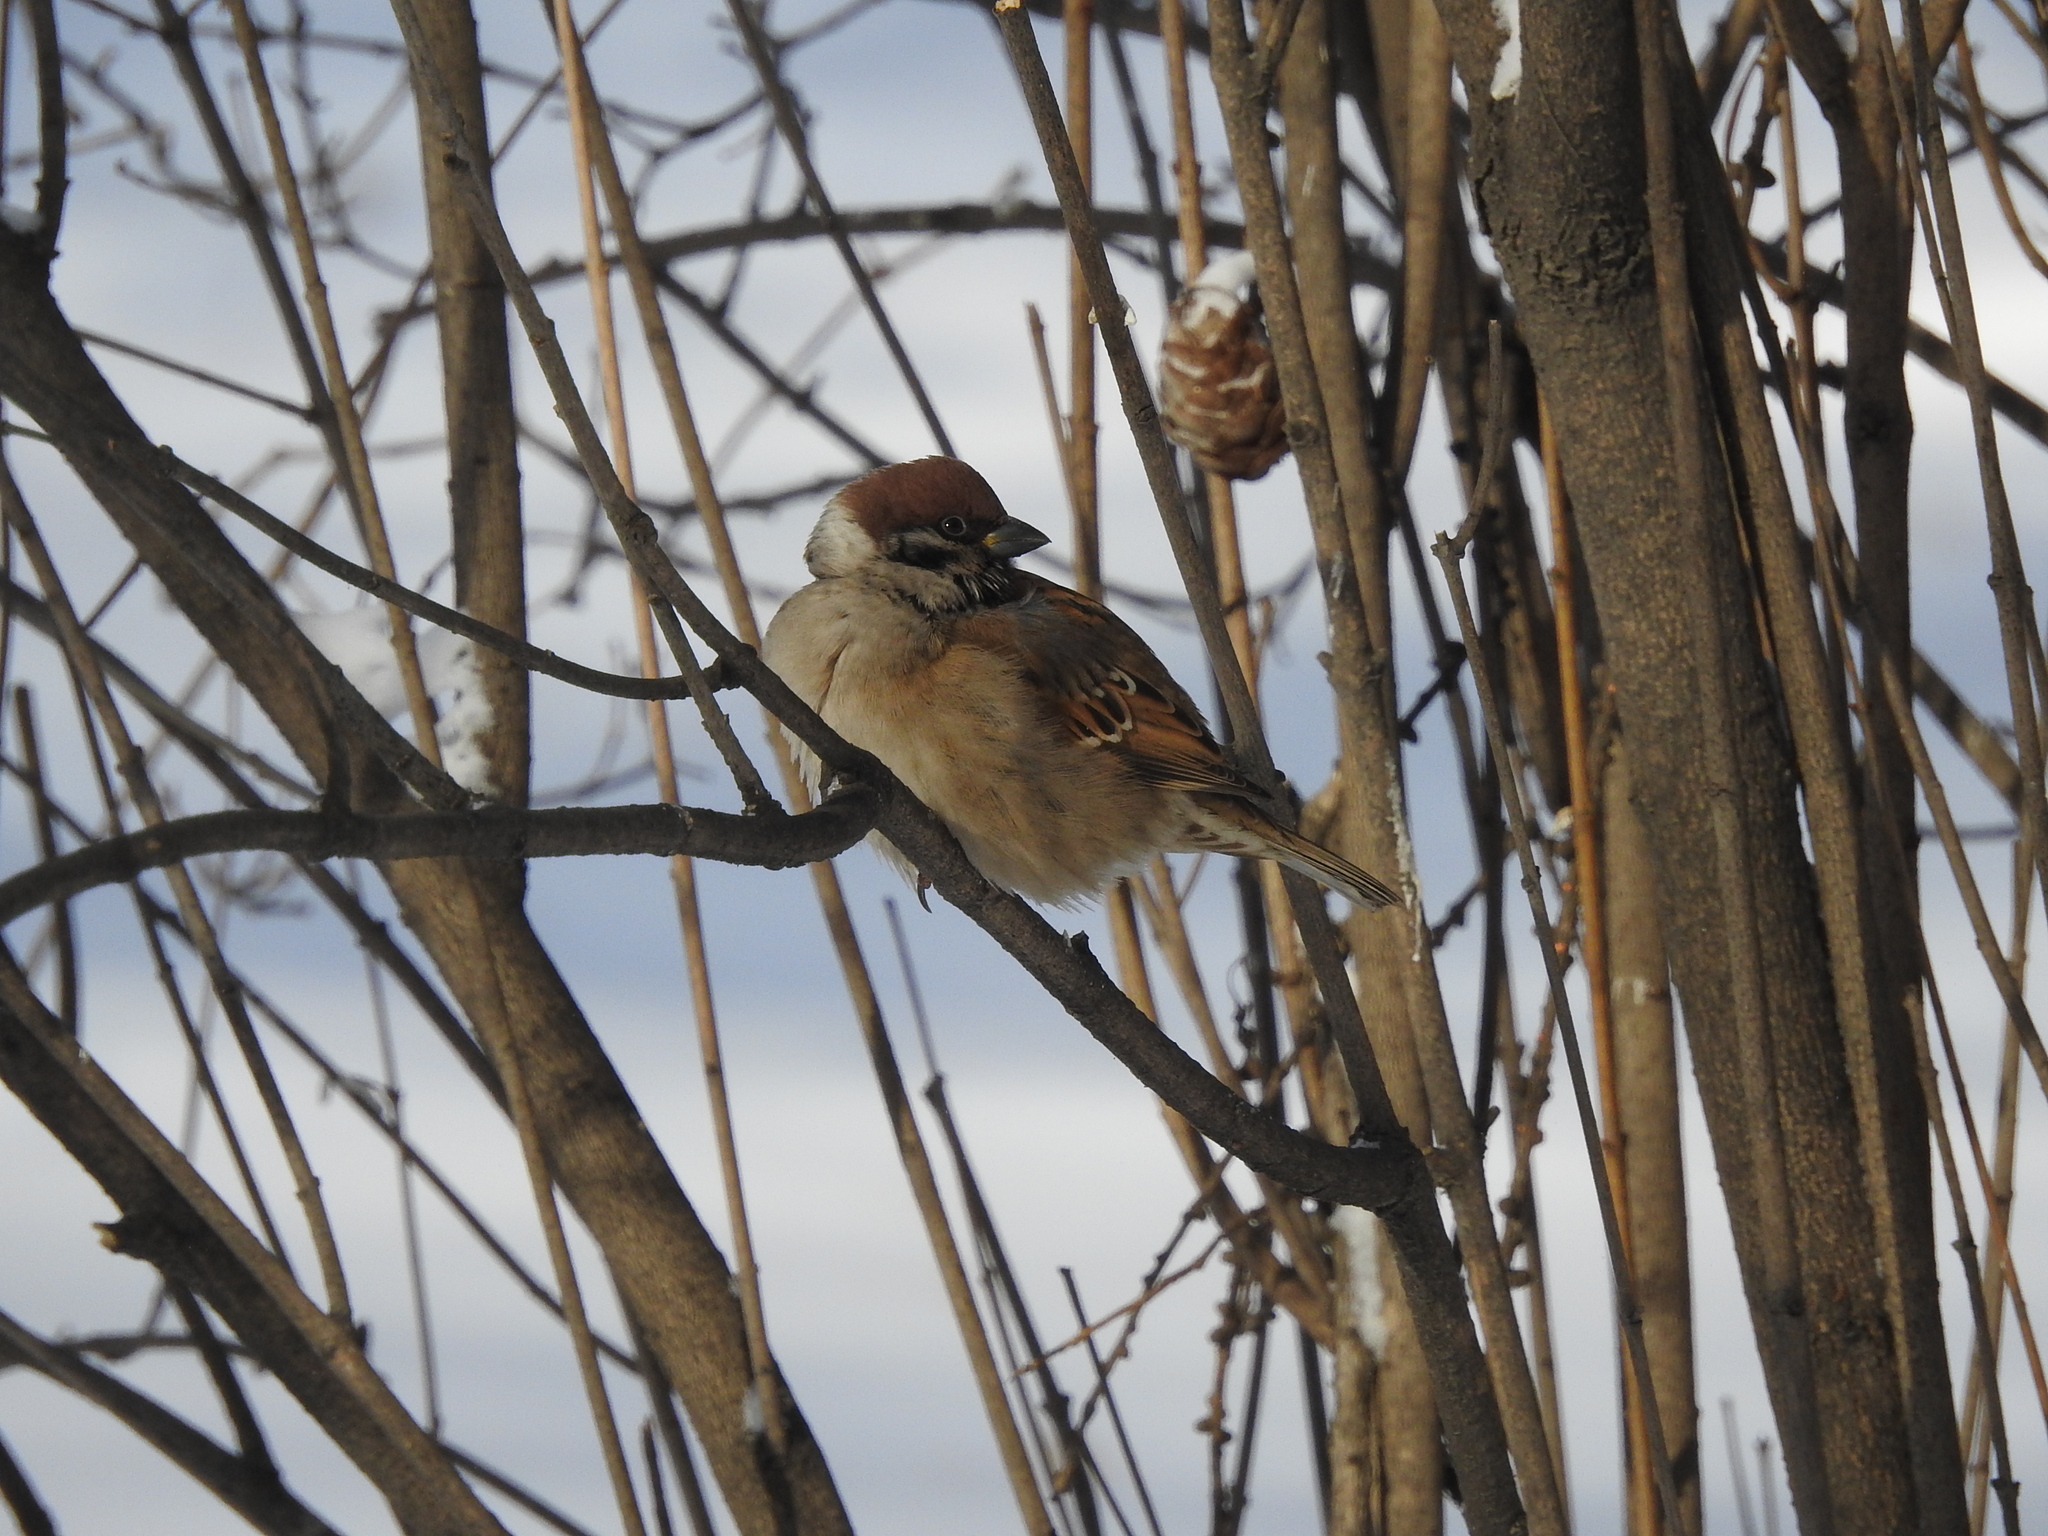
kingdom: Animalia
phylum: Chordata
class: Aves
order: Passeriformes
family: Passeridae
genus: Passer
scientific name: Passer montanus
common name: Eurasian tree sparrow
